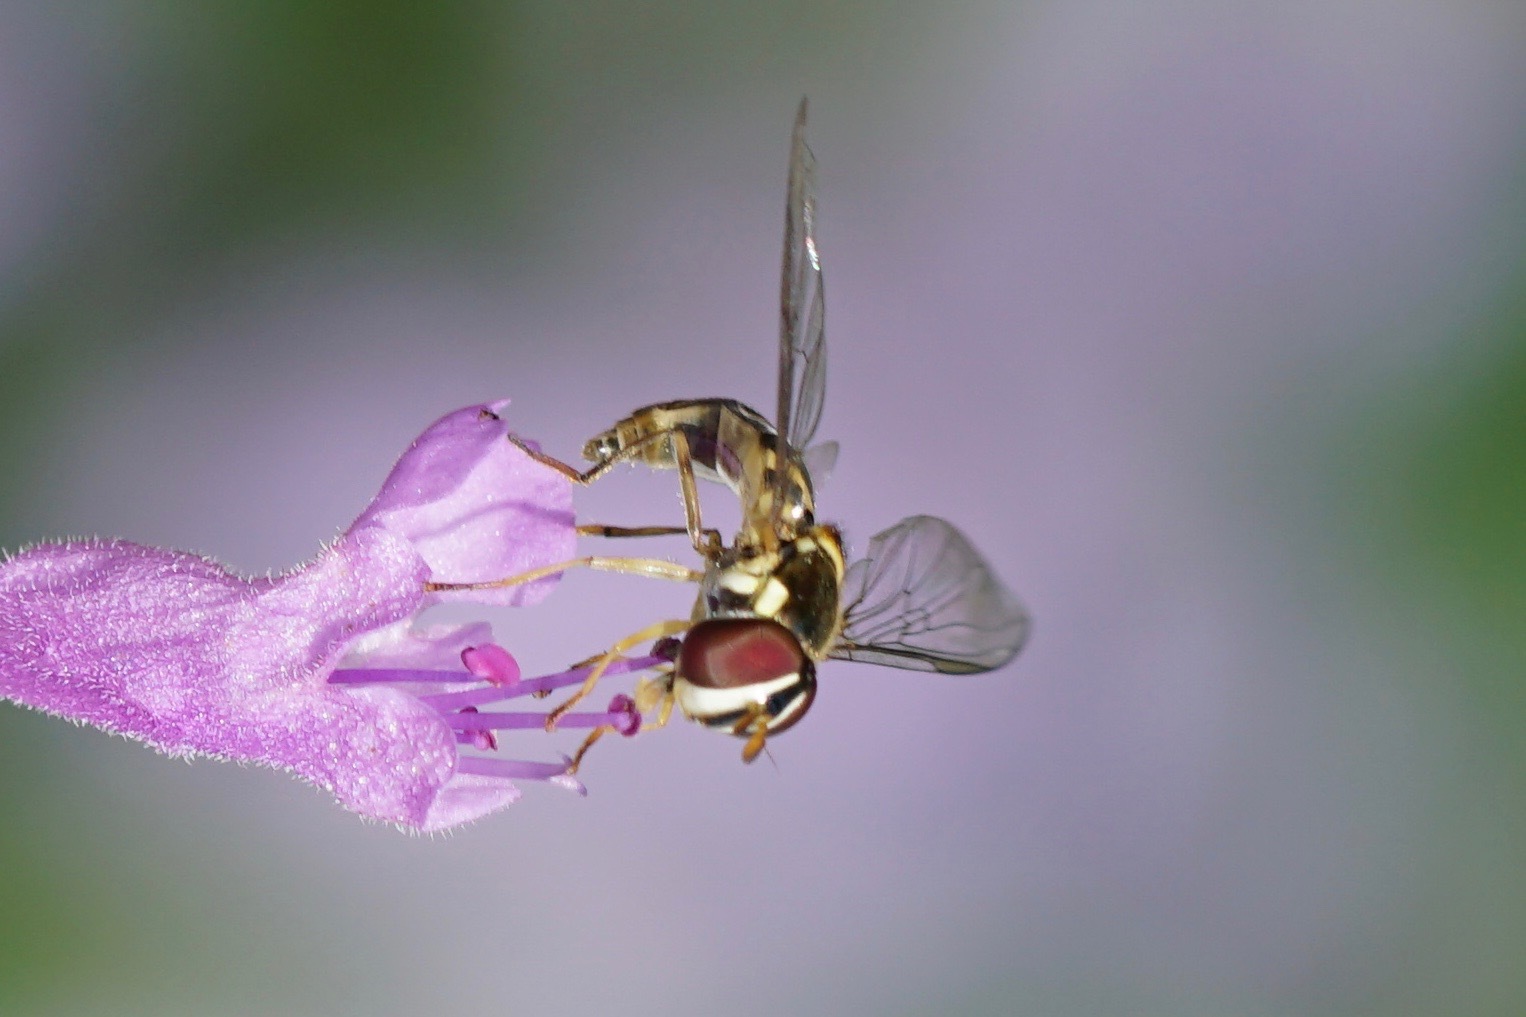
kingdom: Animalia
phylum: Arthropoda
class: Insecta
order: Diptera
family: Syrphidae
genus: Allograpta
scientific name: Allograpta obliqua
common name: Common oblique syrphid
